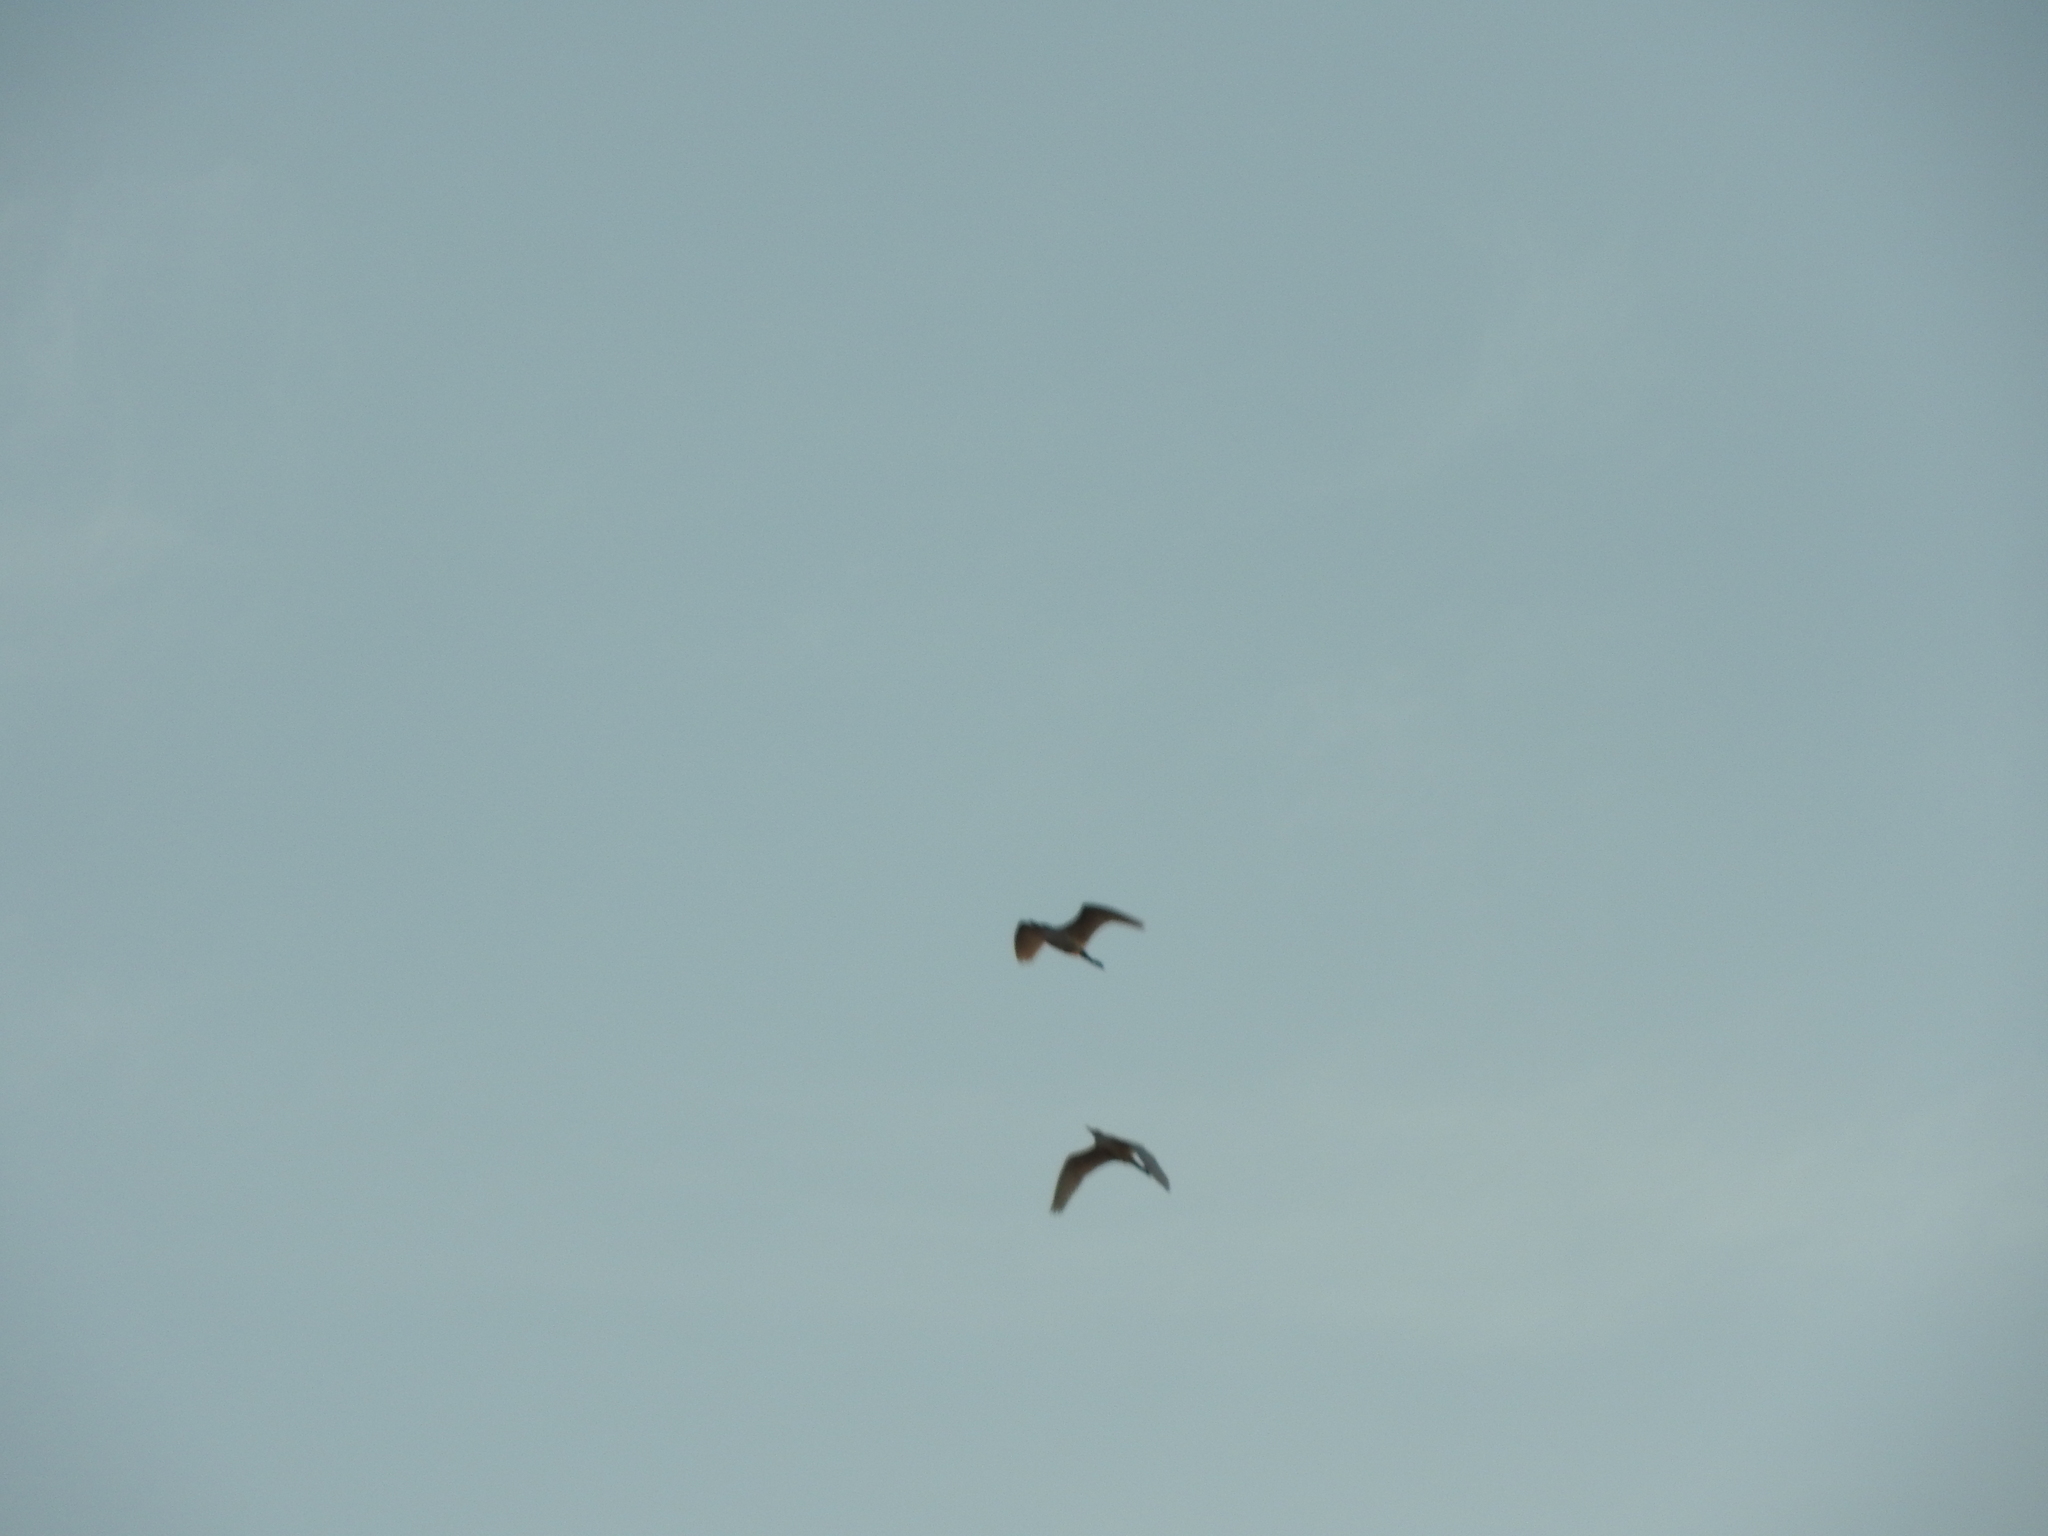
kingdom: Animalia
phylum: Chordata
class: Aves
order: Pelecaniformes
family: Ardeidae
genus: Bubulcus
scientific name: Bubulcus ibis
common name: Cattle egret
